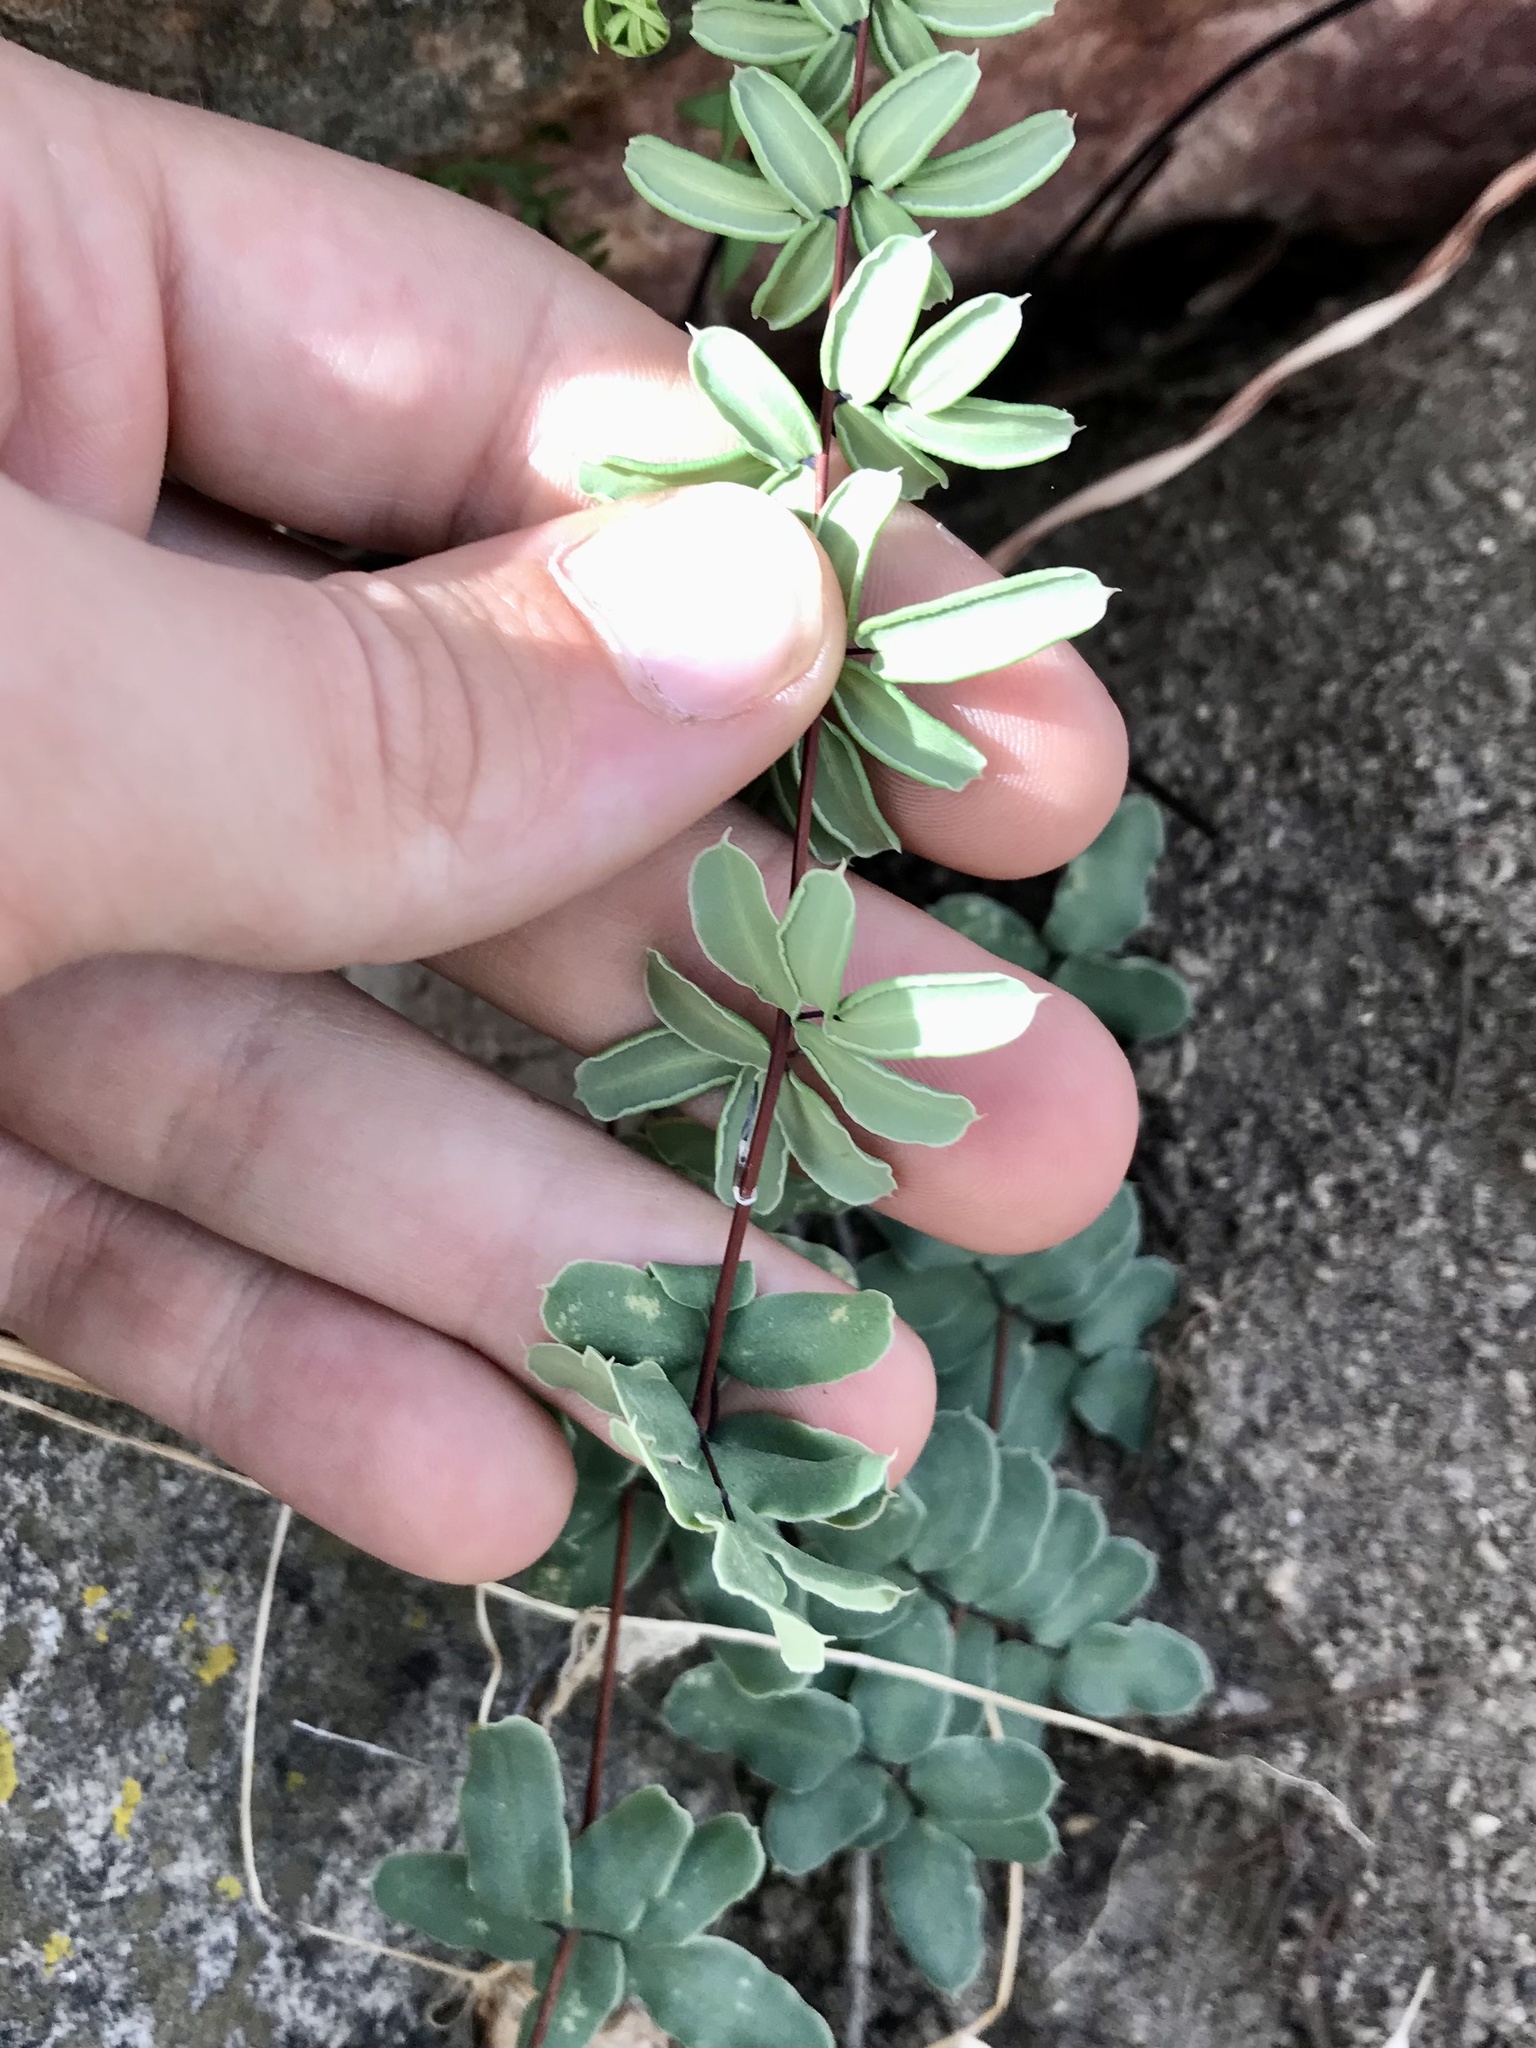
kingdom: Plantae
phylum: Tracheophyta
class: Polypodiopsida
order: Polypodiales
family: Pteridaceae
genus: Pellaea
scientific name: Pellaea wrightiana
